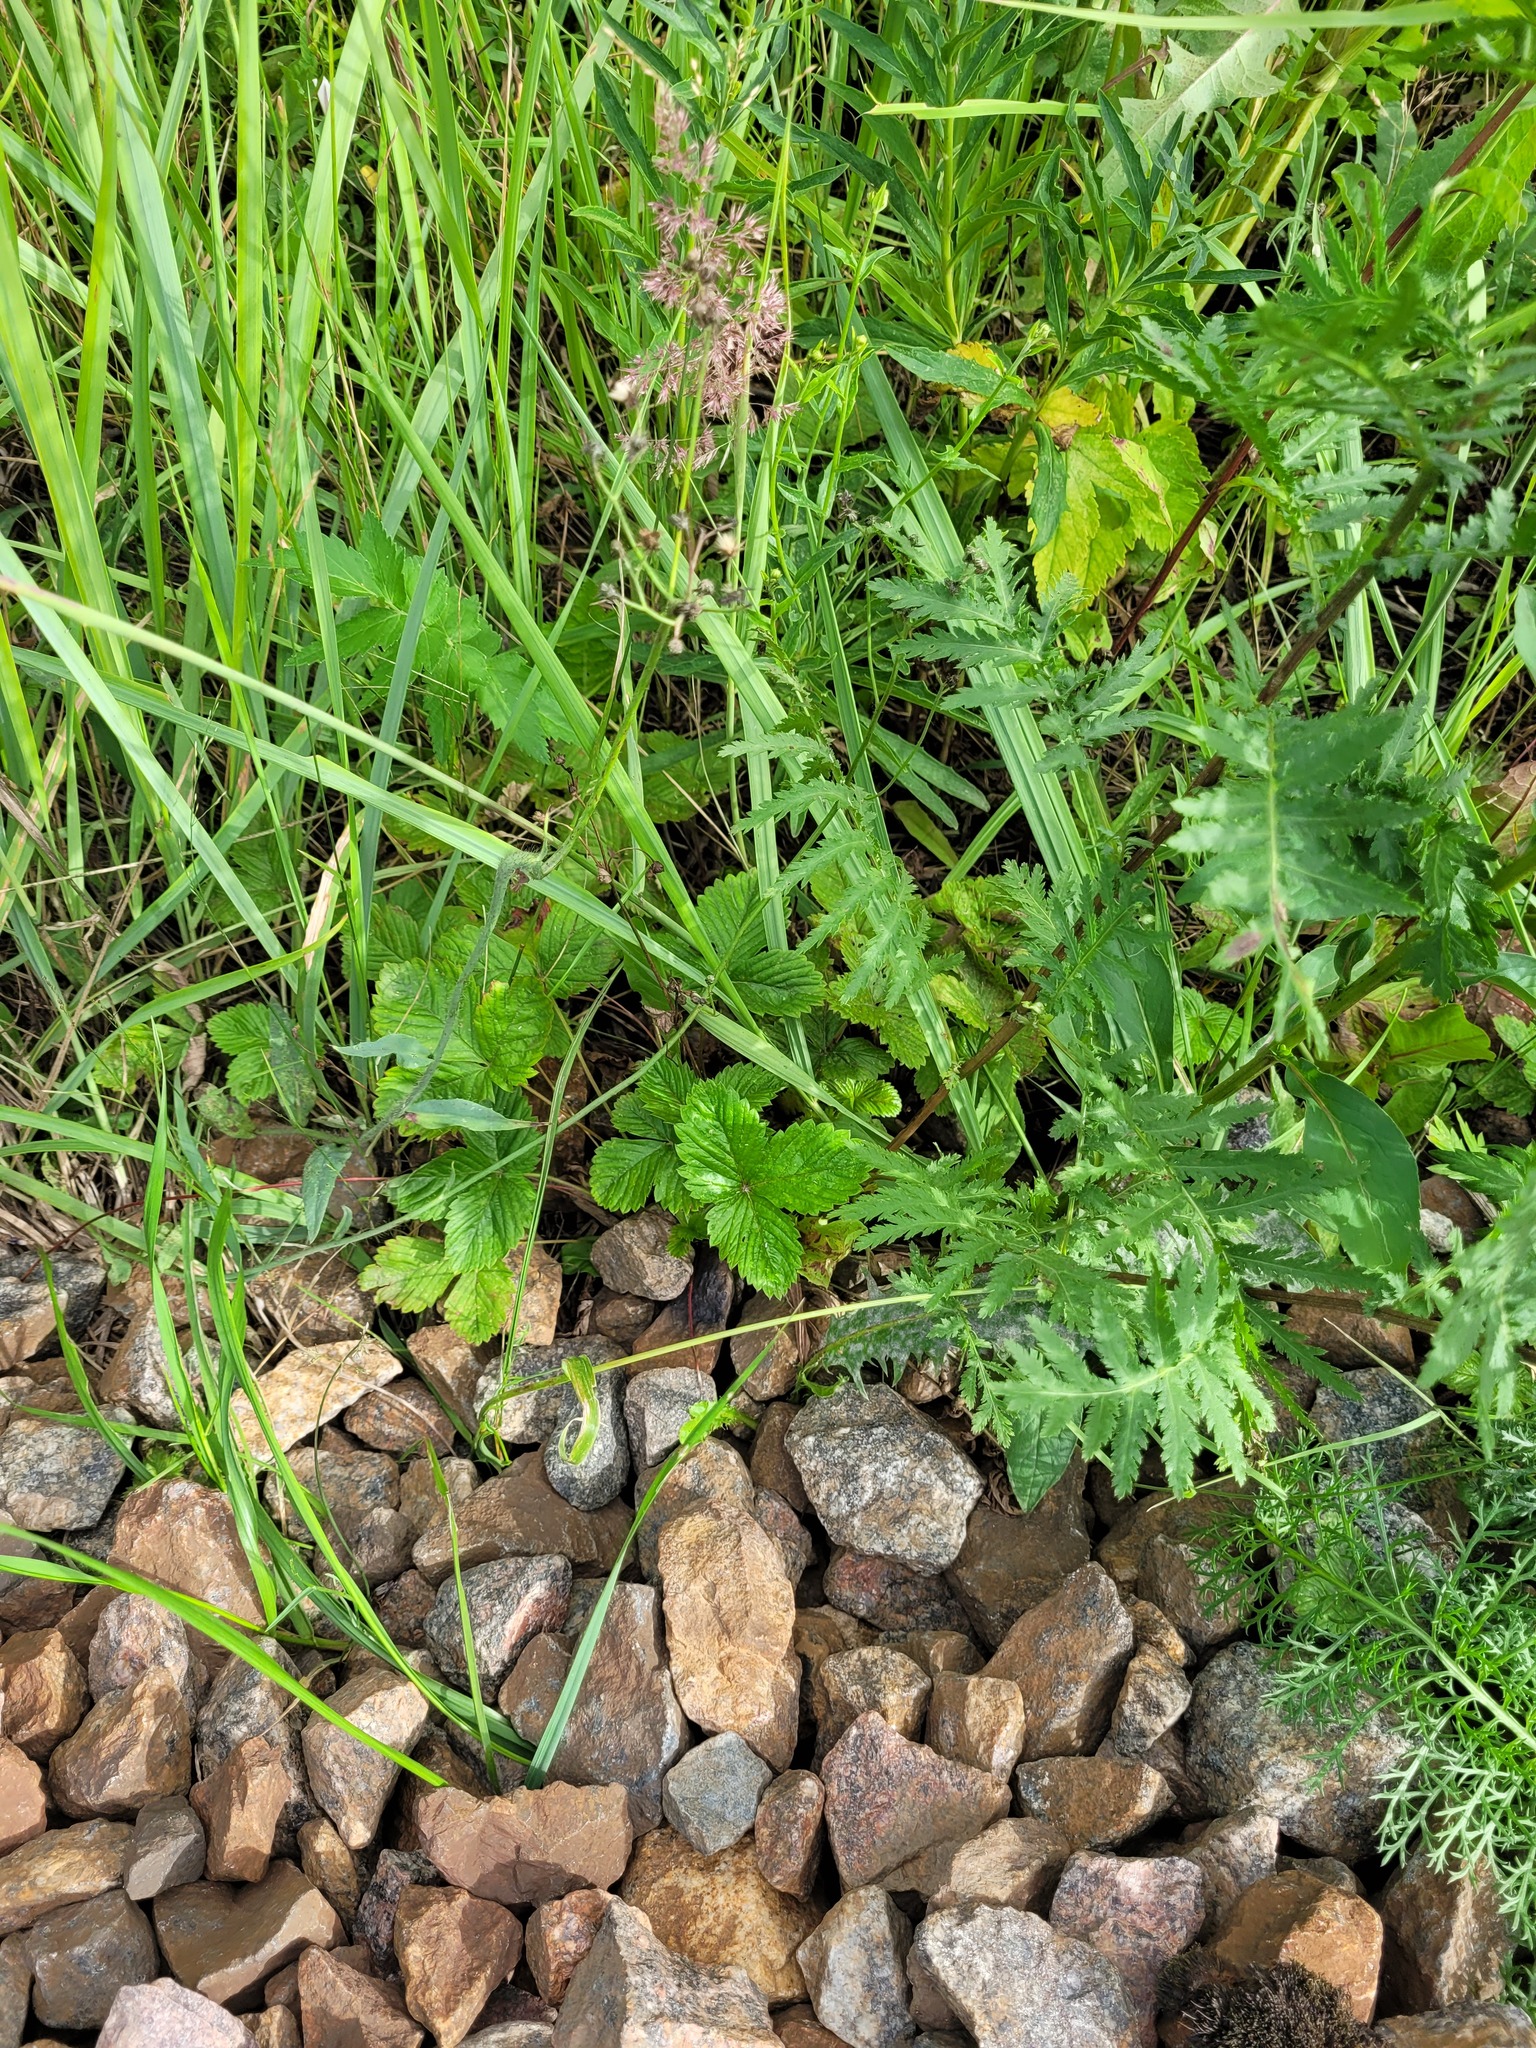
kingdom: Plantae
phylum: Tracheophyta
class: Magnoliopsida
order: Rosales
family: Rosaceae
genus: Fragaria
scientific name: Fragaria vesca
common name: Wild strawberry
